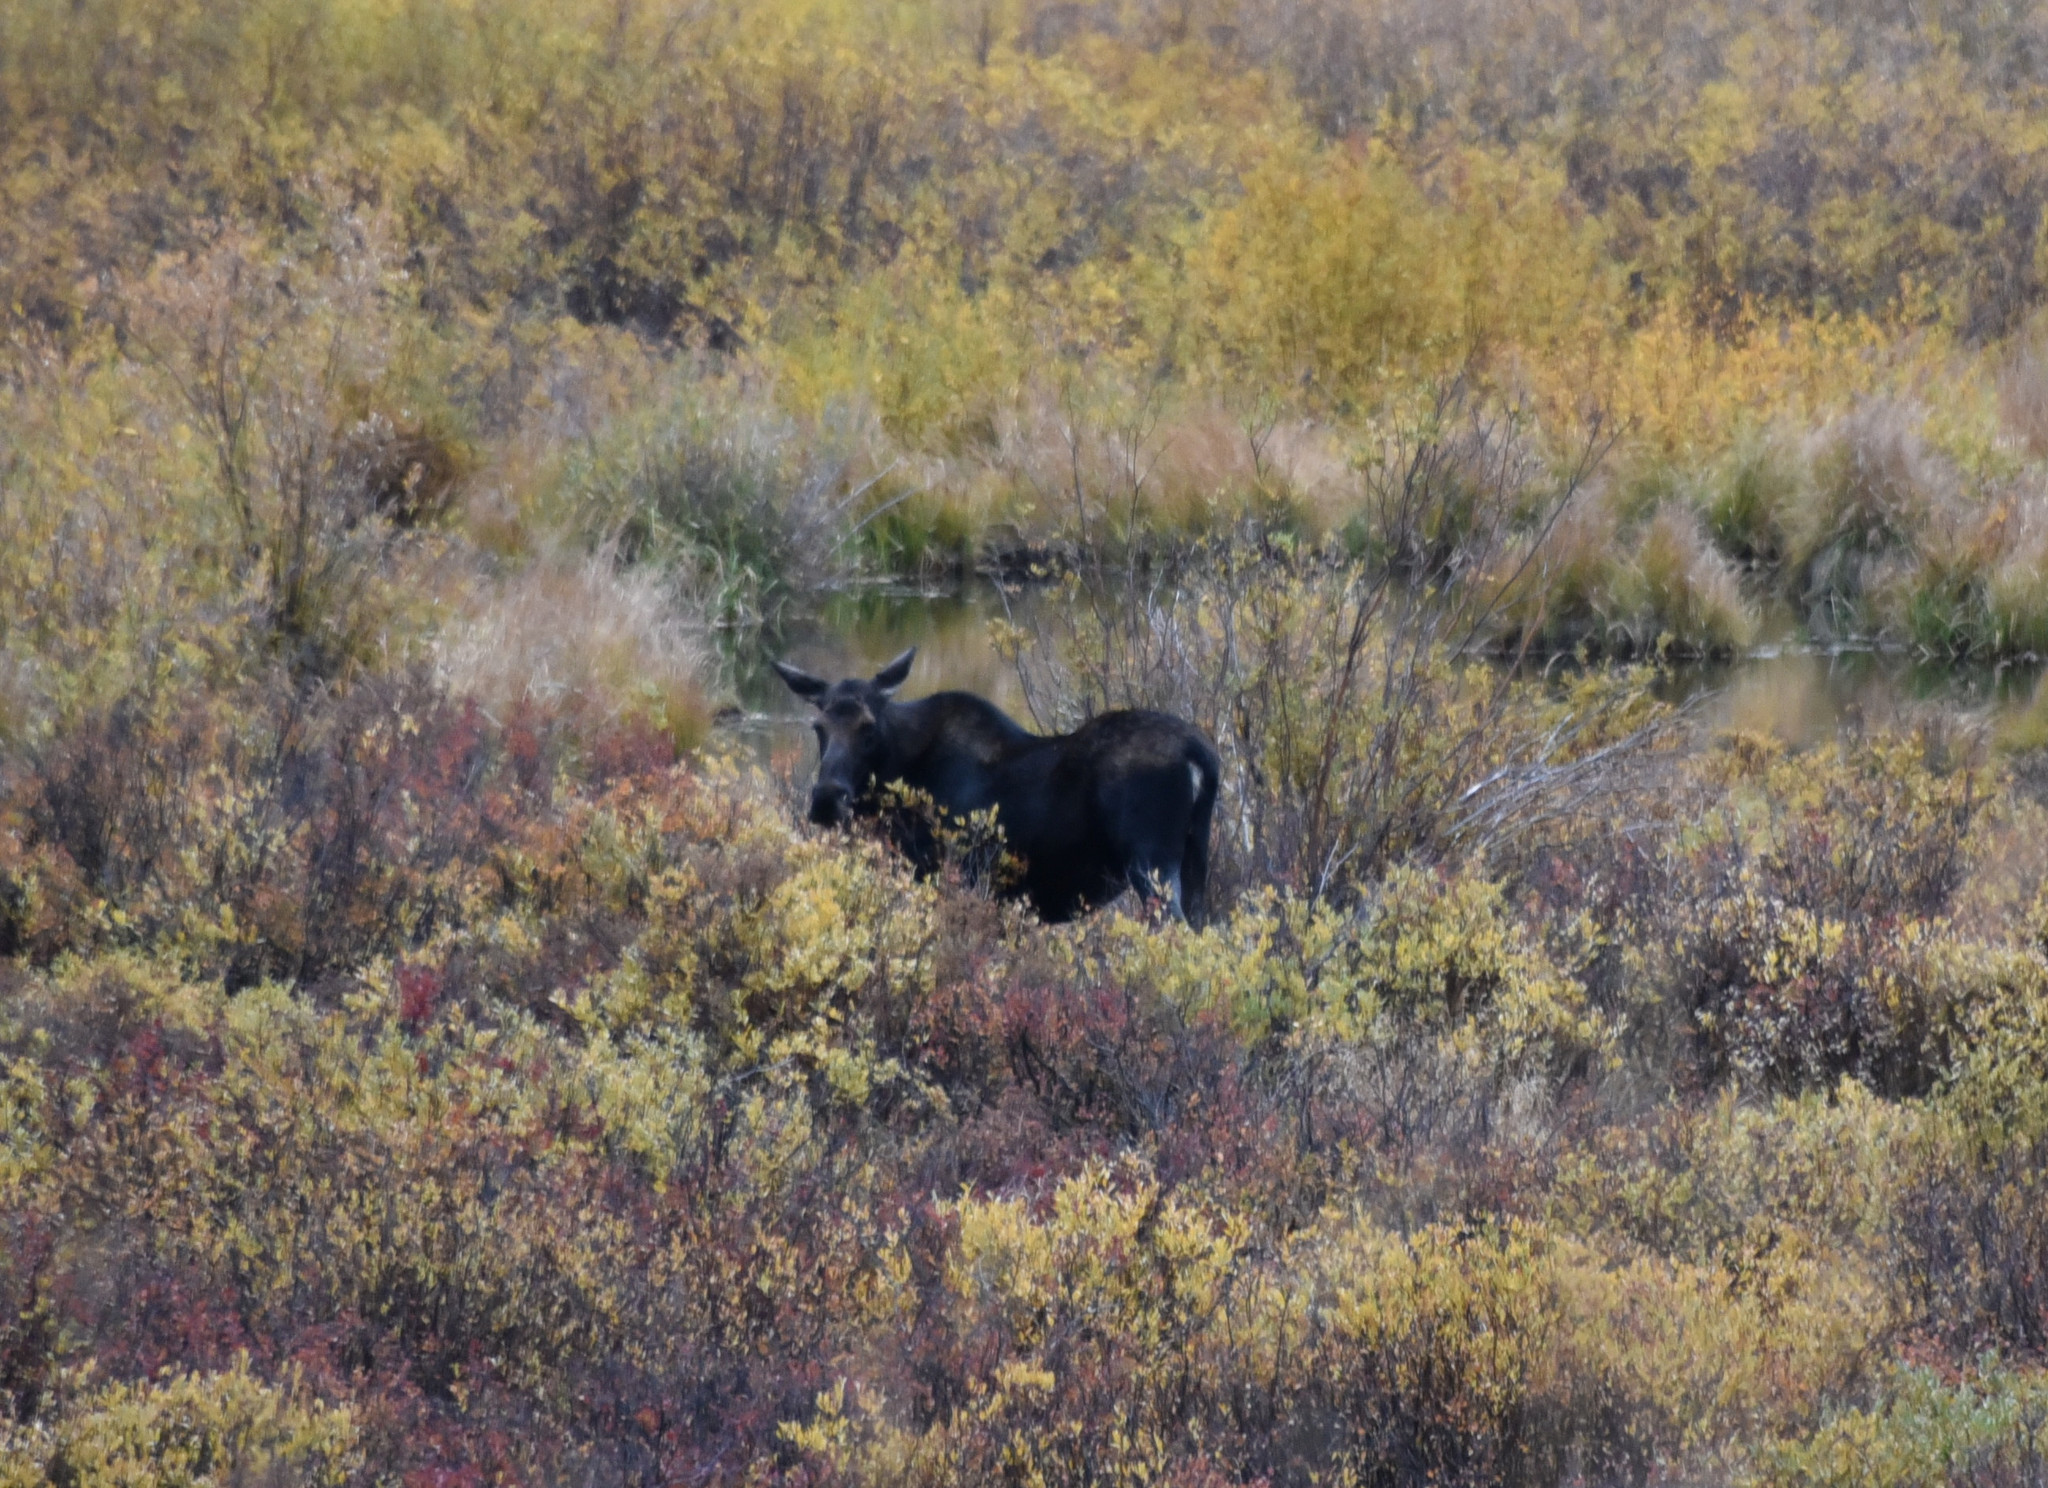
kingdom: Animalia
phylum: Chordata
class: Mammalia
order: Artiodactyla
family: Cervidae
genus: Alces
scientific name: Alces alces
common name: Moose
